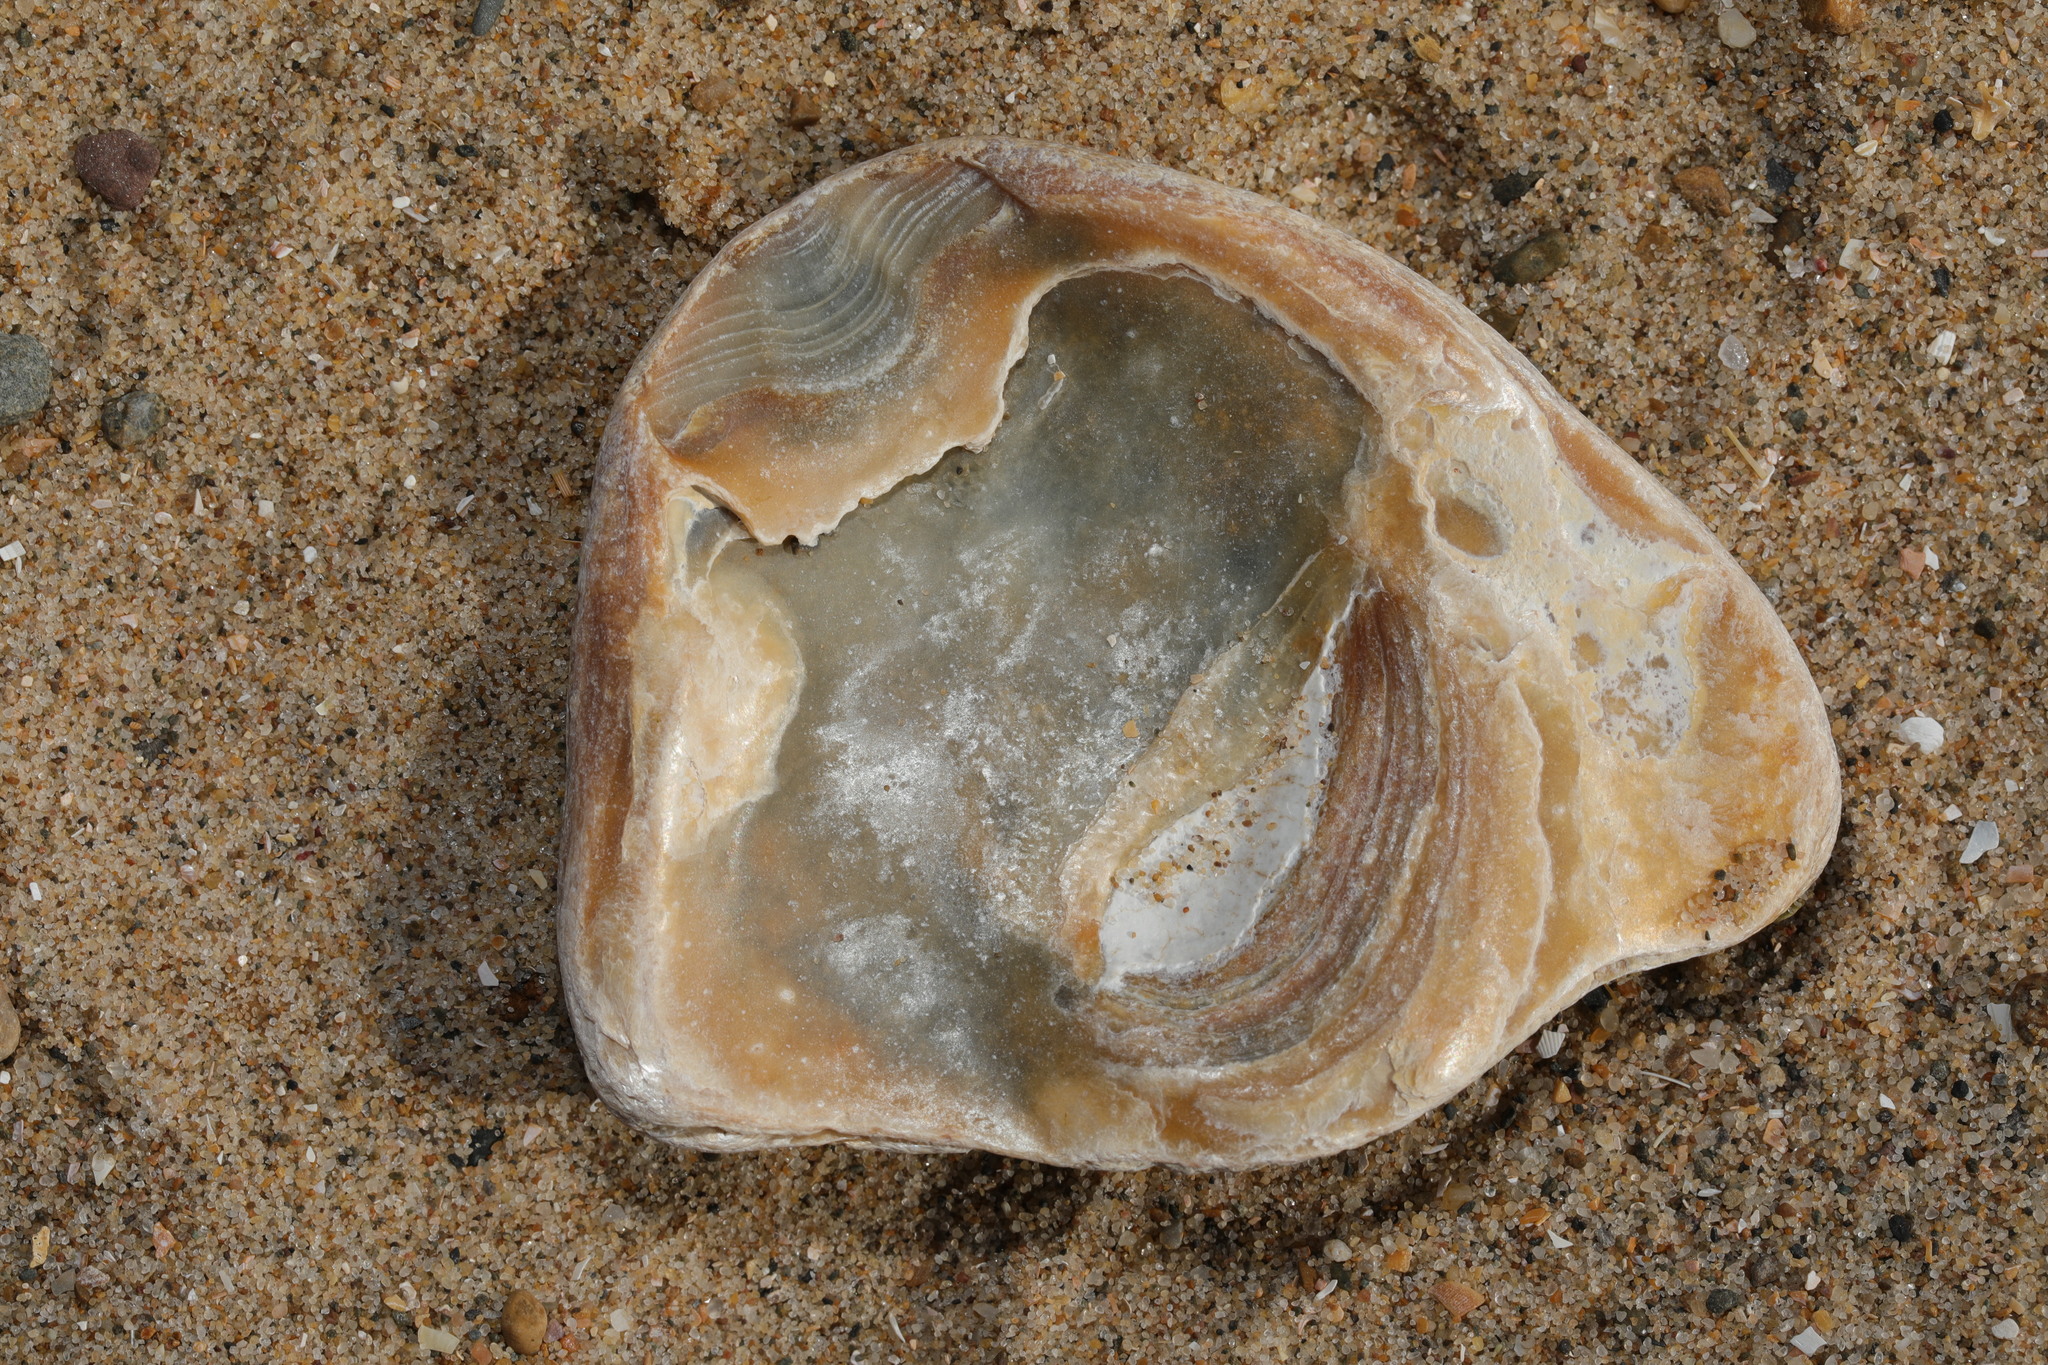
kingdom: Animalia
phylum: Mollusca
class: Bivalvia
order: Ostreida
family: Ostreidae
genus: Ostrea
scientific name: Ostrea edulis
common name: Flat oyster
